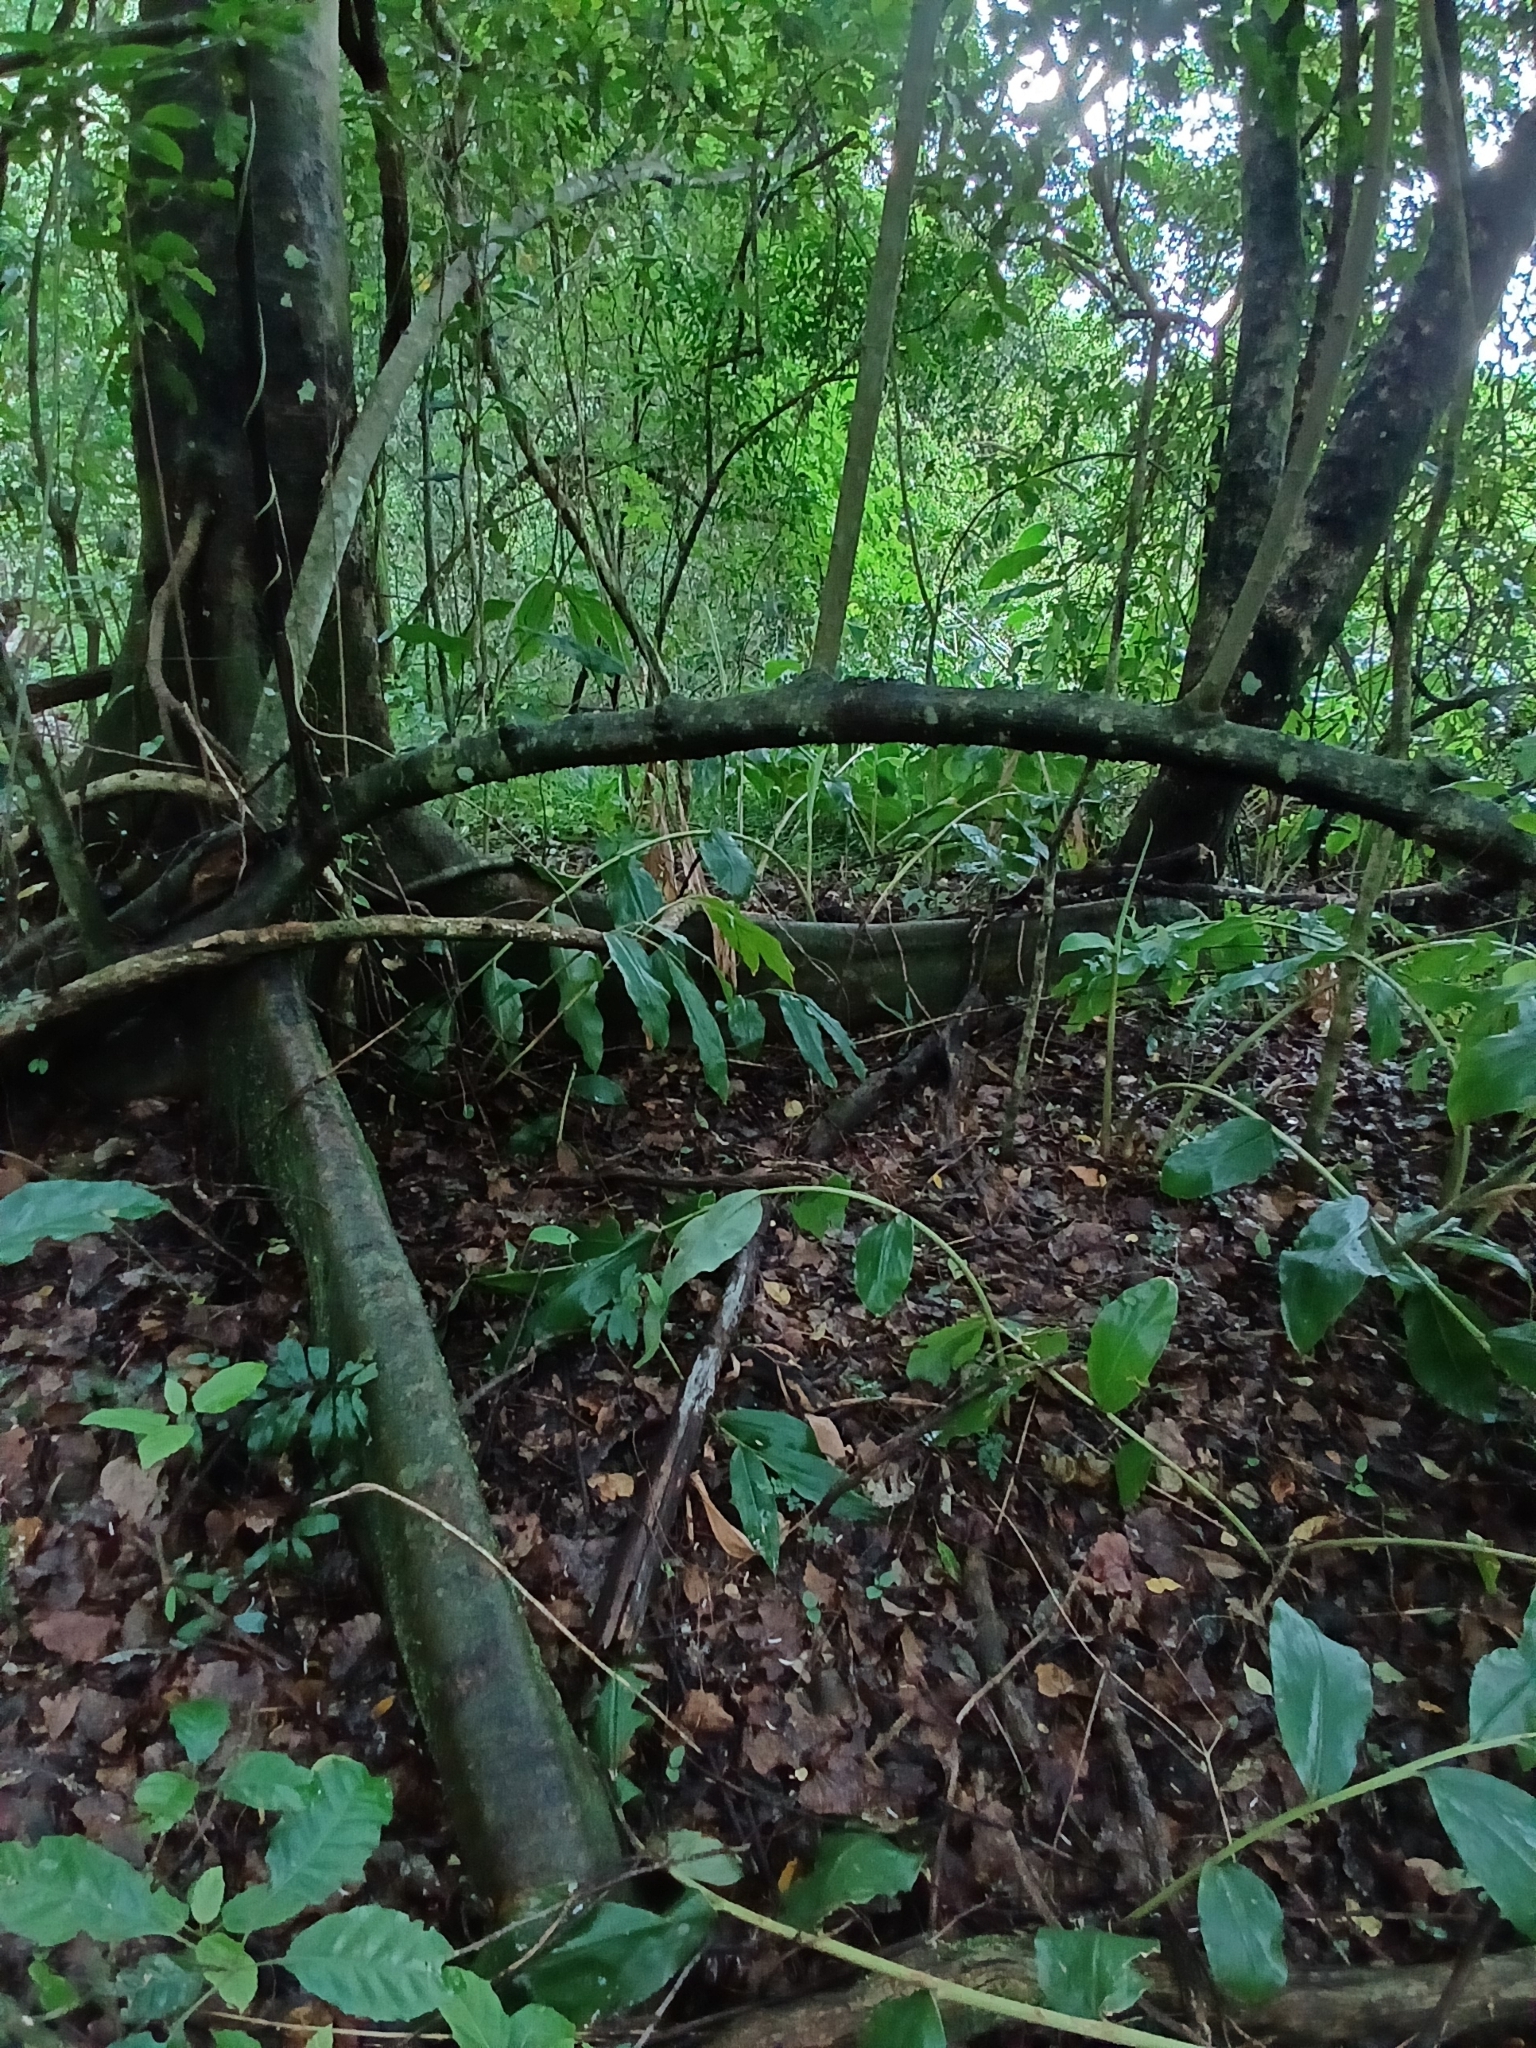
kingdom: Plantae
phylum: Tracheophyta
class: Magnoliopsida
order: Rosales
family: Moraceae
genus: Ficus
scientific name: Ficus sur
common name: Cape fig
